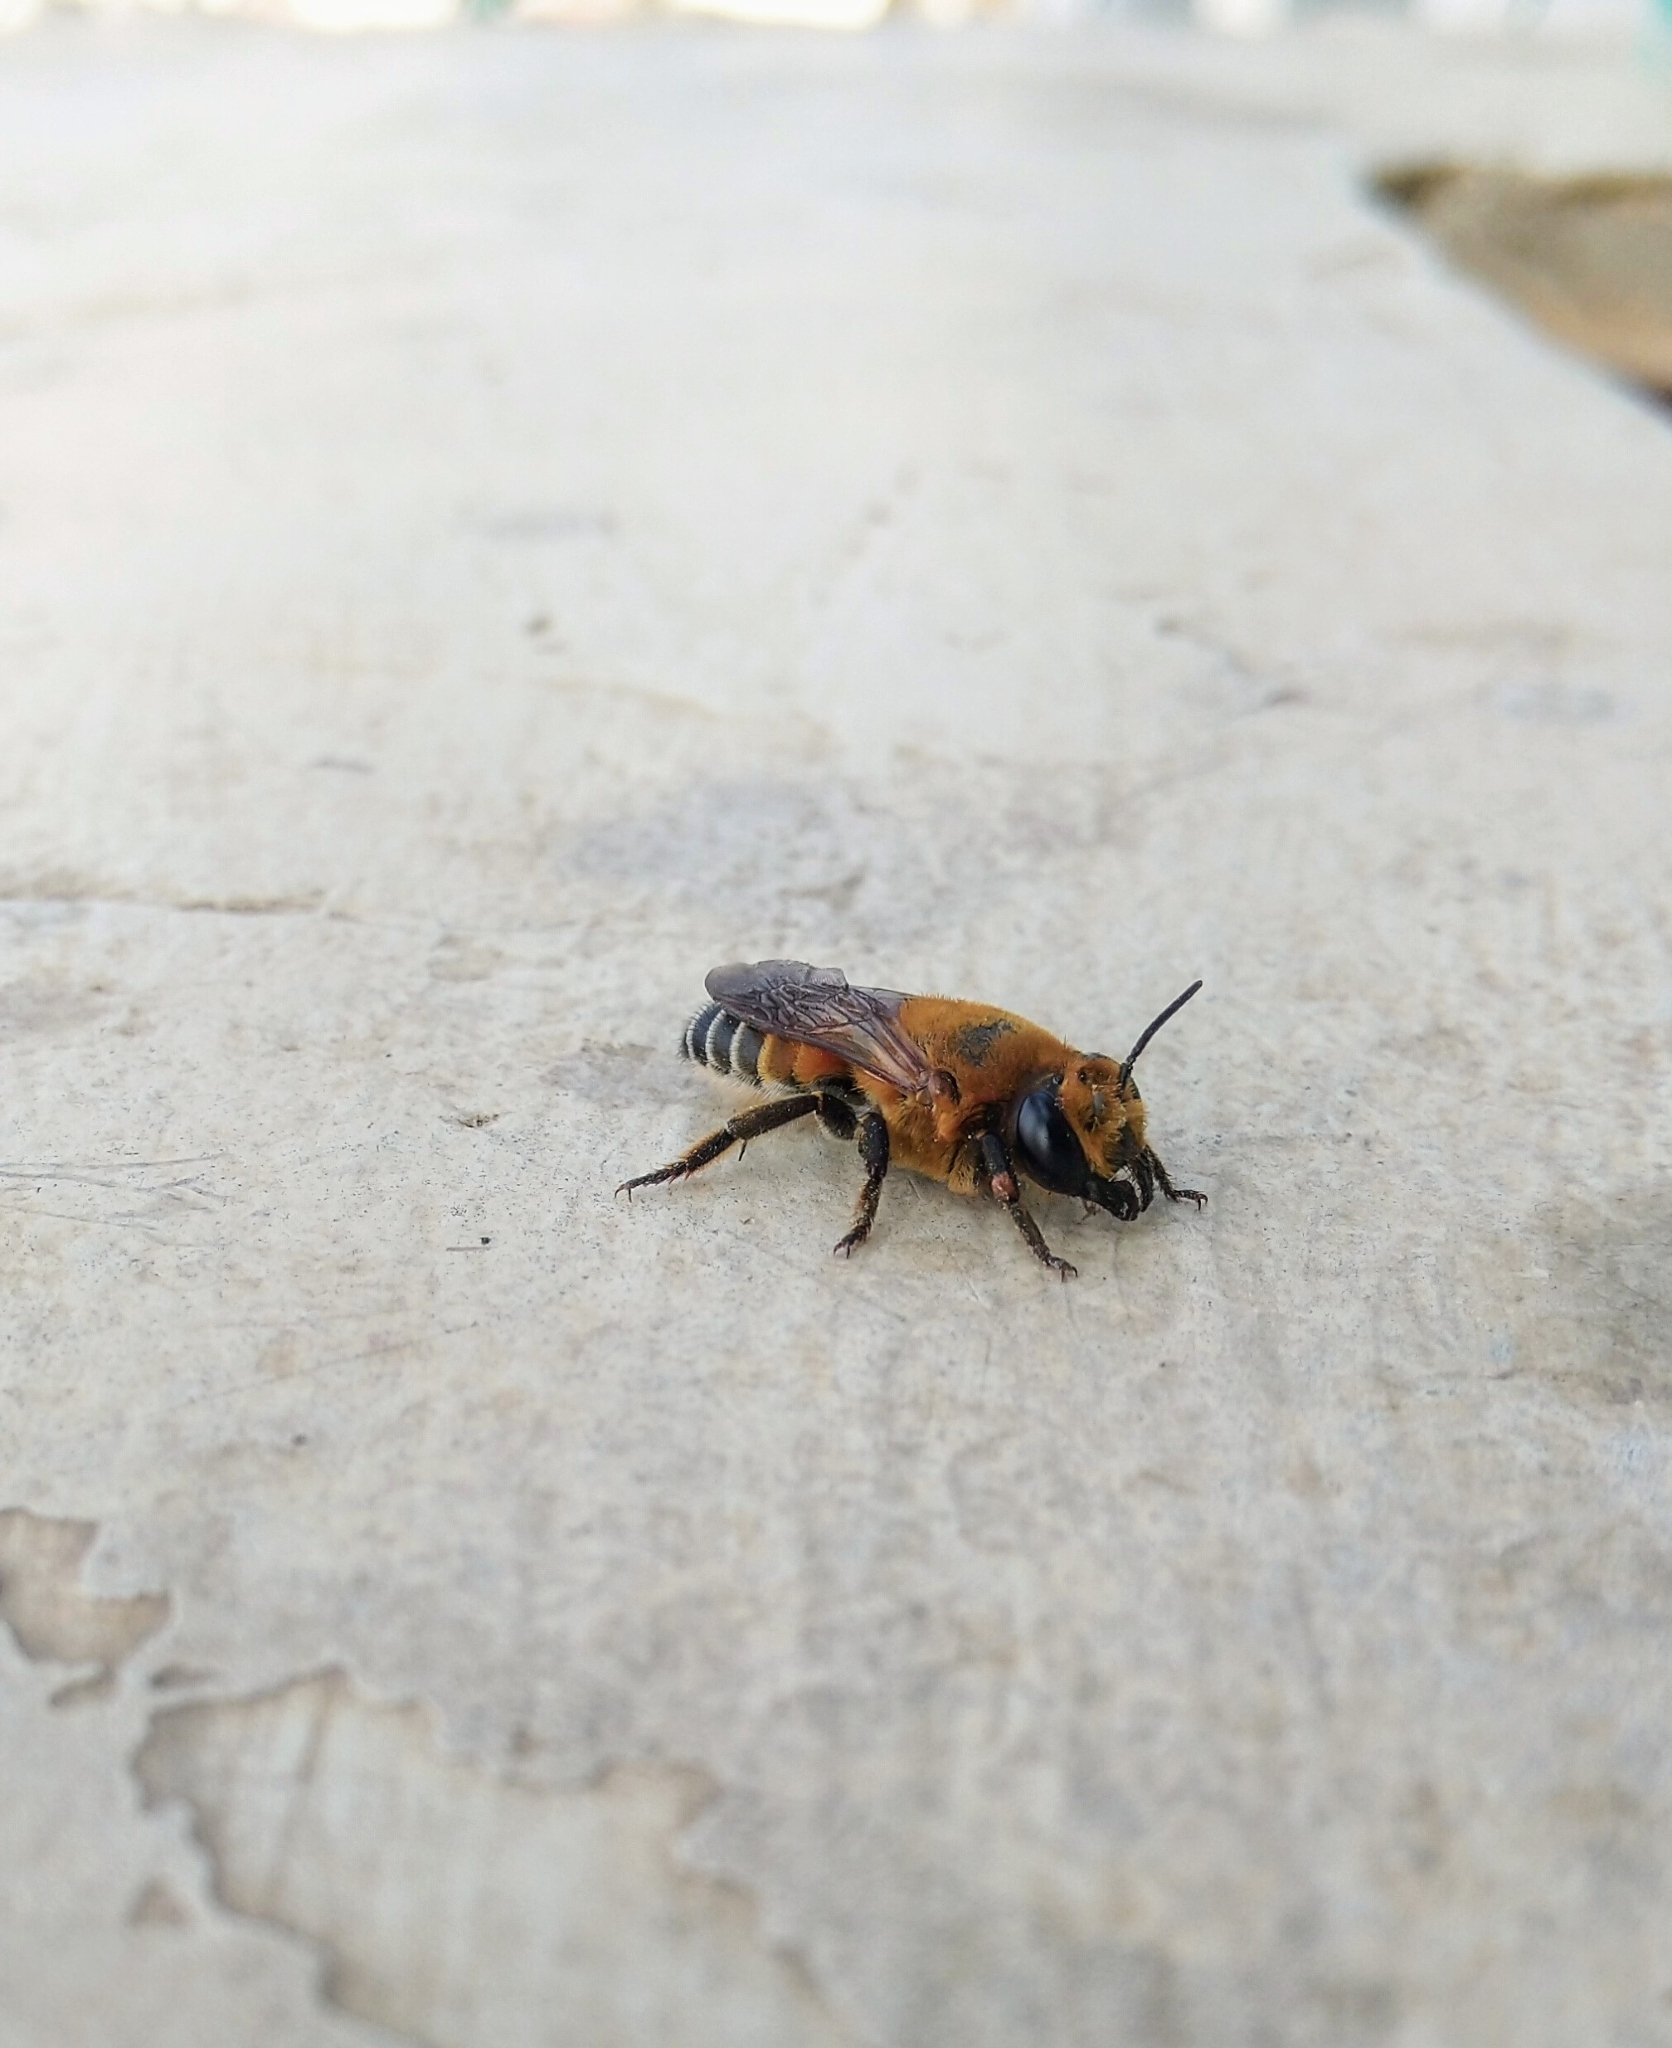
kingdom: Animalia
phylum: Arthropoda
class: Insecta
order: Hymenoptera
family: Megachilidae
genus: Megachile
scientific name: Megachile lanata
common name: Wooly wall bee
